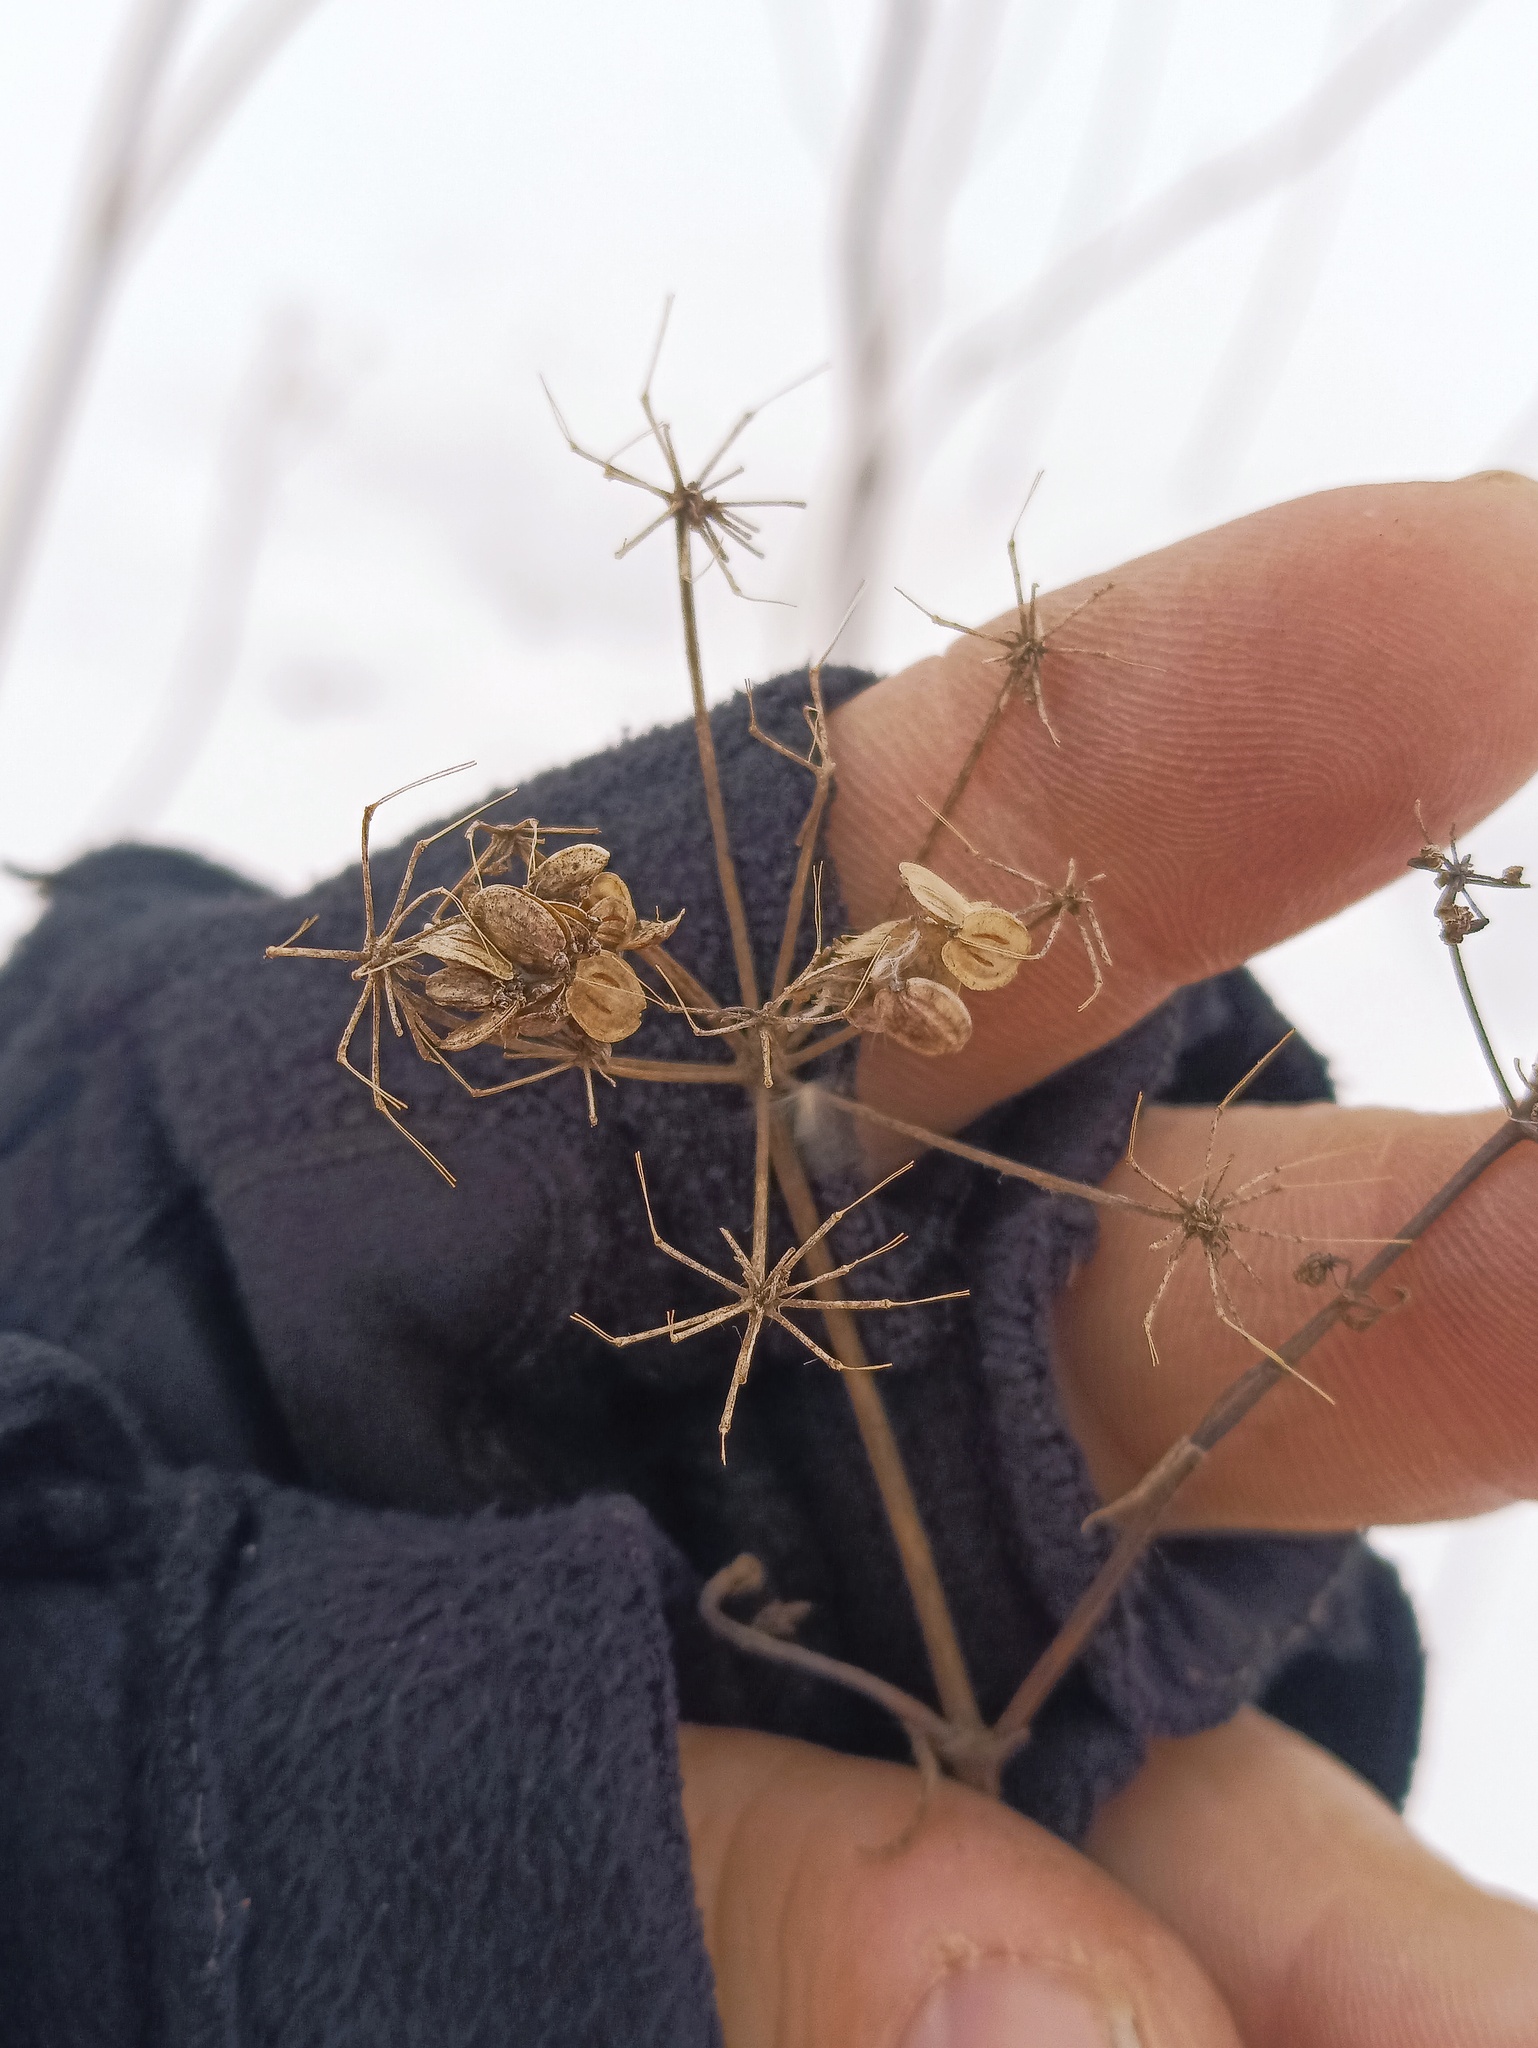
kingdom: Plantae
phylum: Tracheophyta
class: Magnoliopsida
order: Apiales
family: Apiaceae
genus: Pastinaca
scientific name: Pastinaca sativa
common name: Wild parsnip
